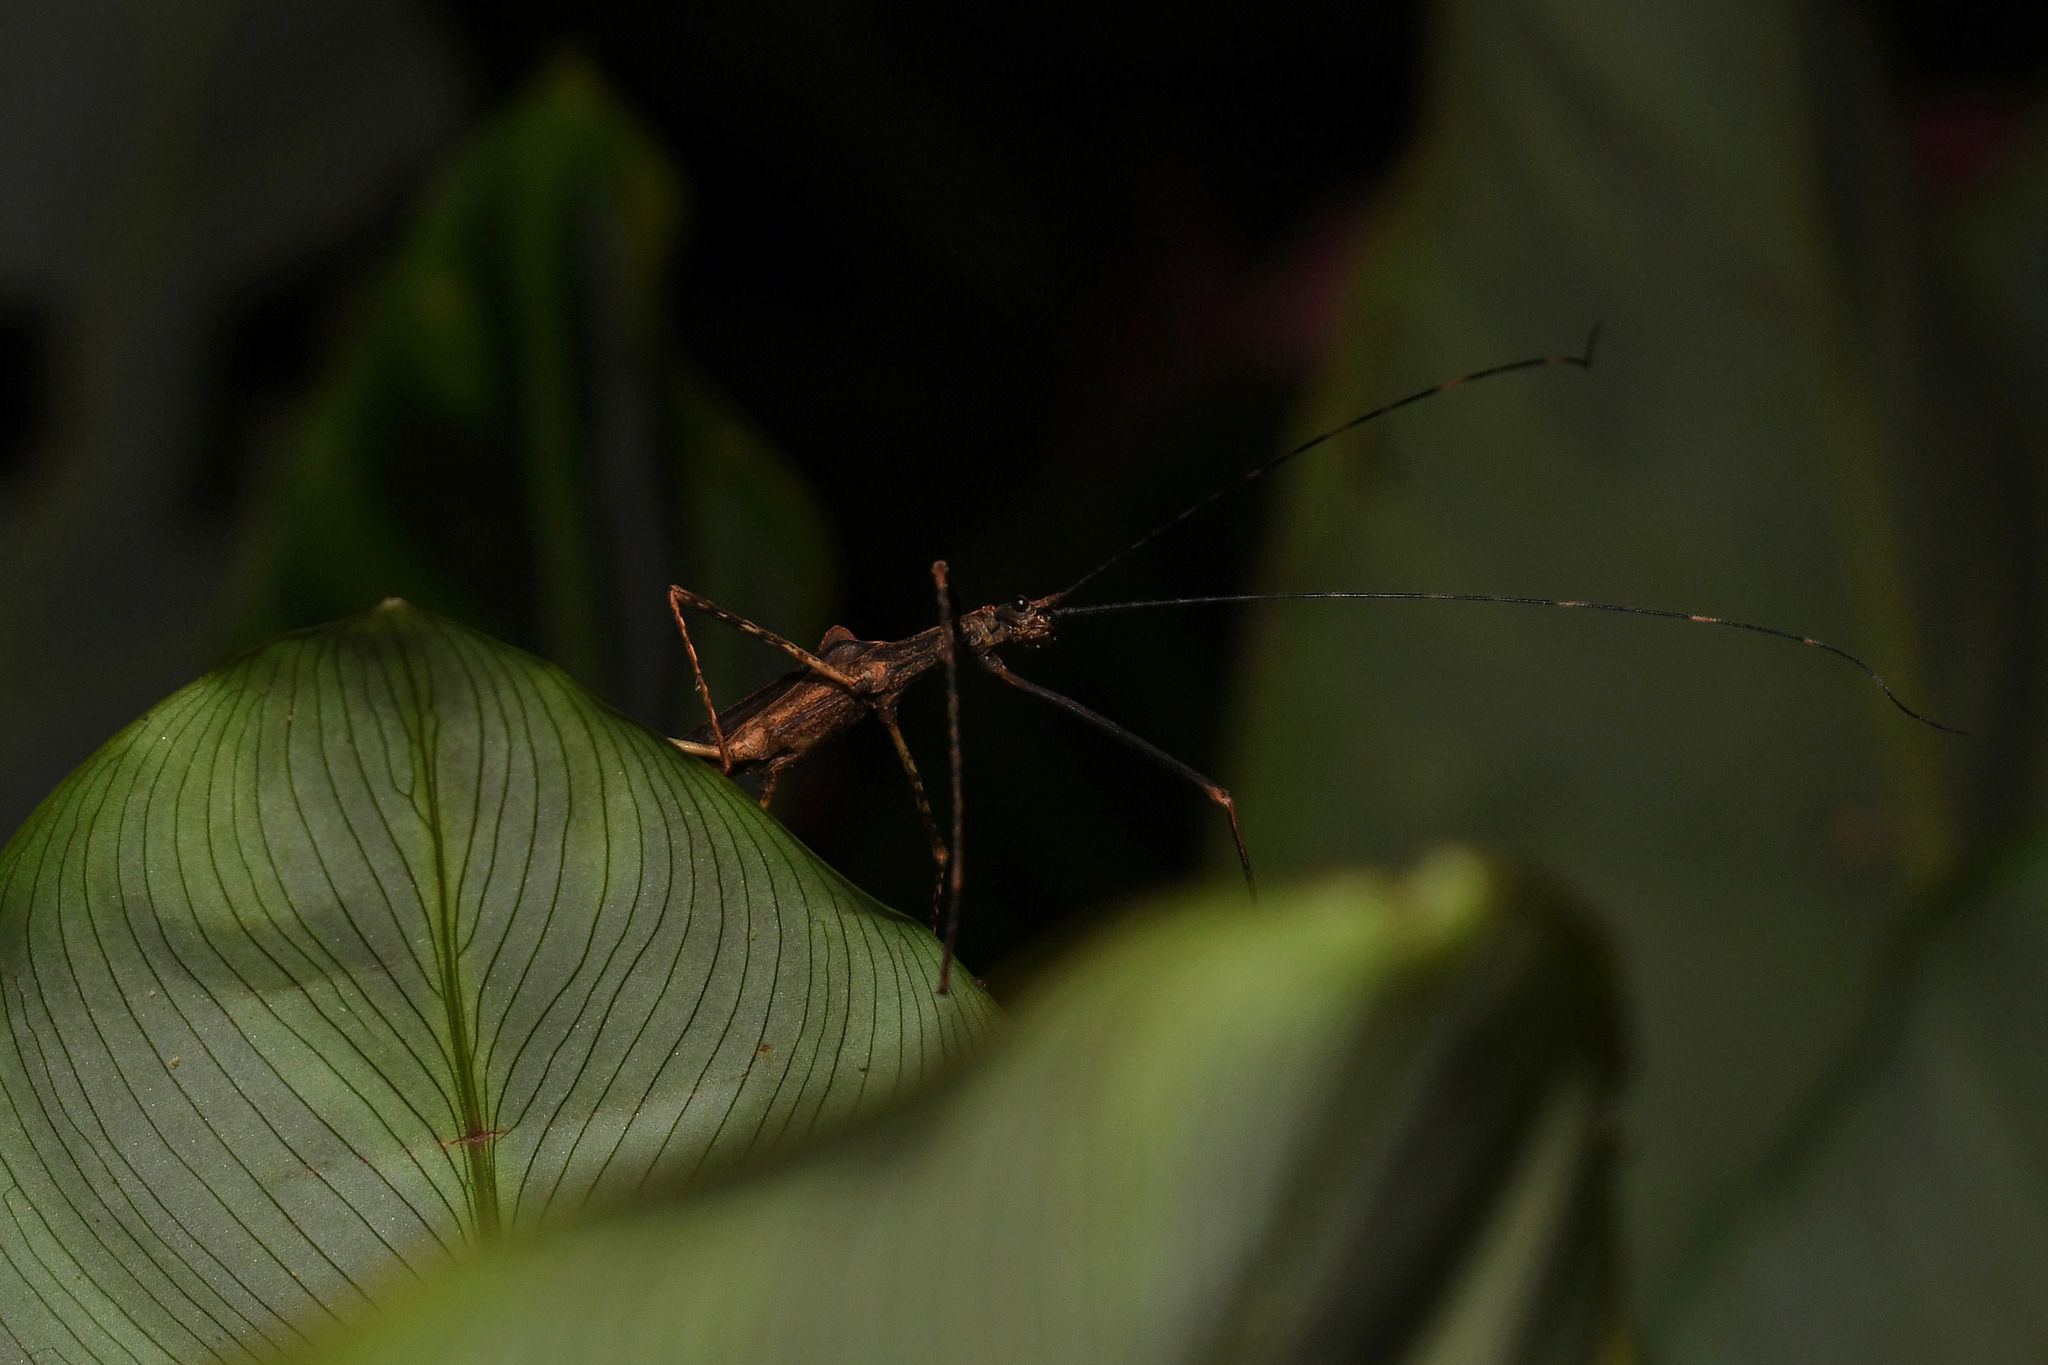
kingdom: Animalia
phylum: Arthropoda
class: Insecta
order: Phasmida
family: Pseudophasmatidae
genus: Pseudophasma
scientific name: Pseudophasma unicolor
